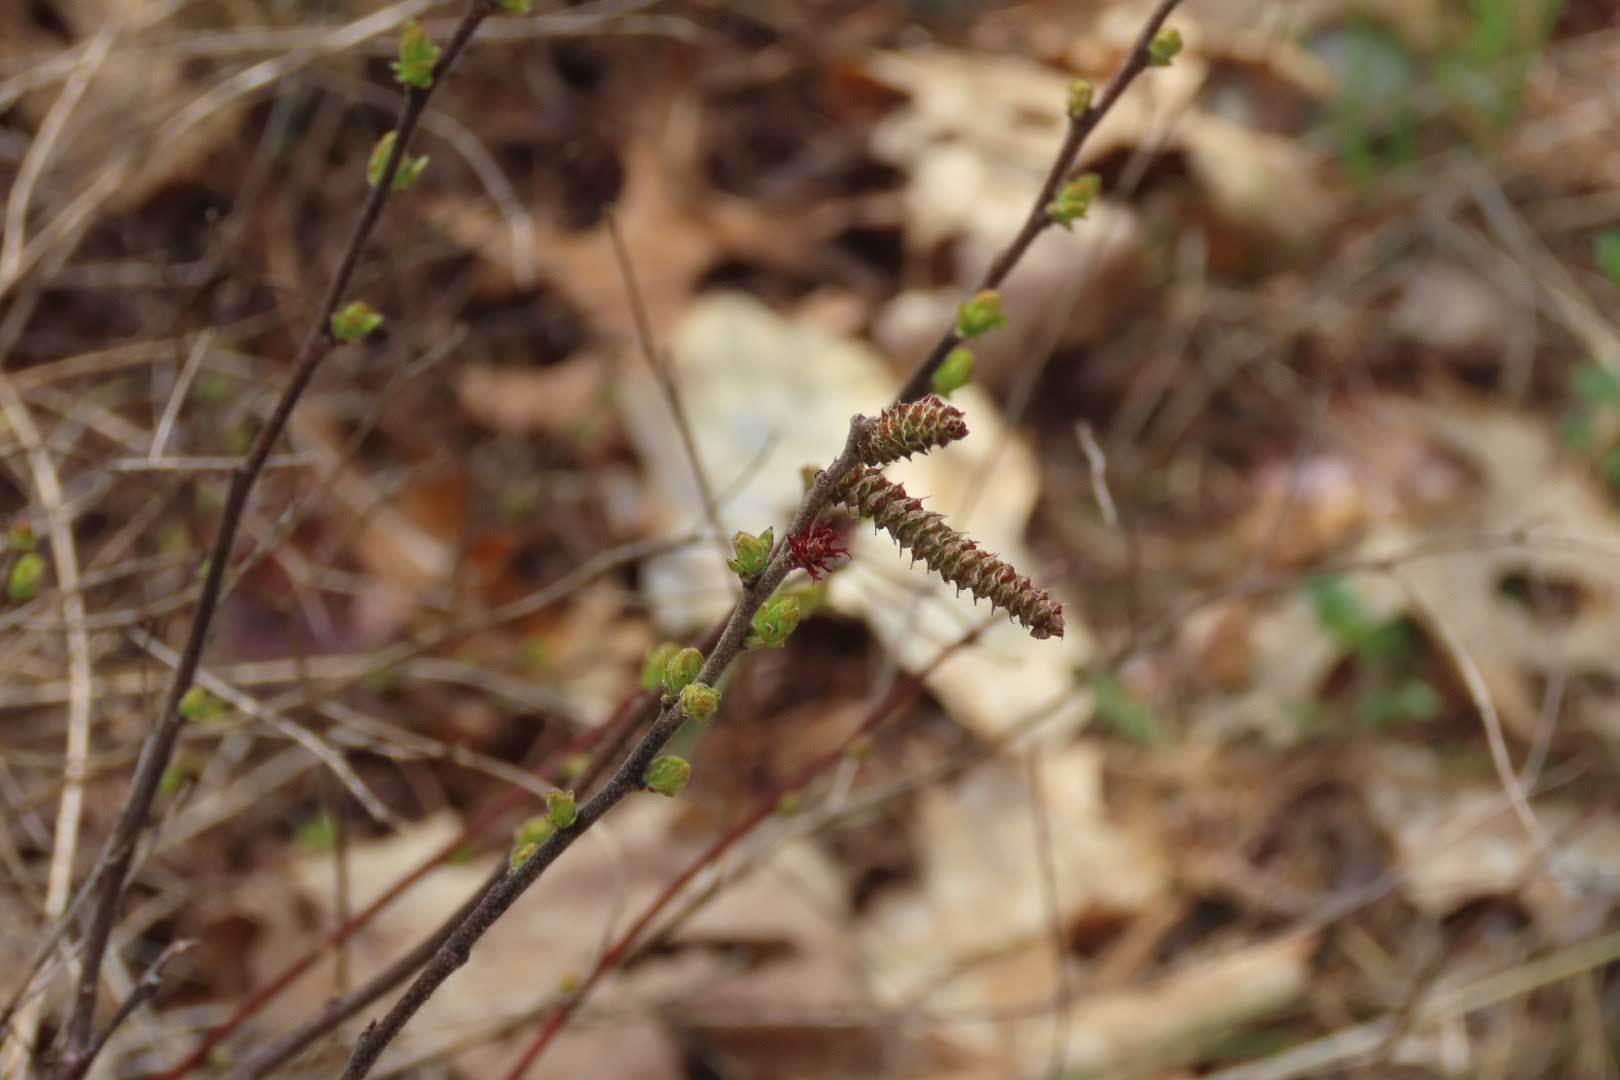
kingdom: Plantae
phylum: Tracheophyta
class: Magnoliopsida
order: Fagales
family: Myricaceae
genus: Comptonia
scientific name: Comptonia peregrina
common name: Sweet-fern
